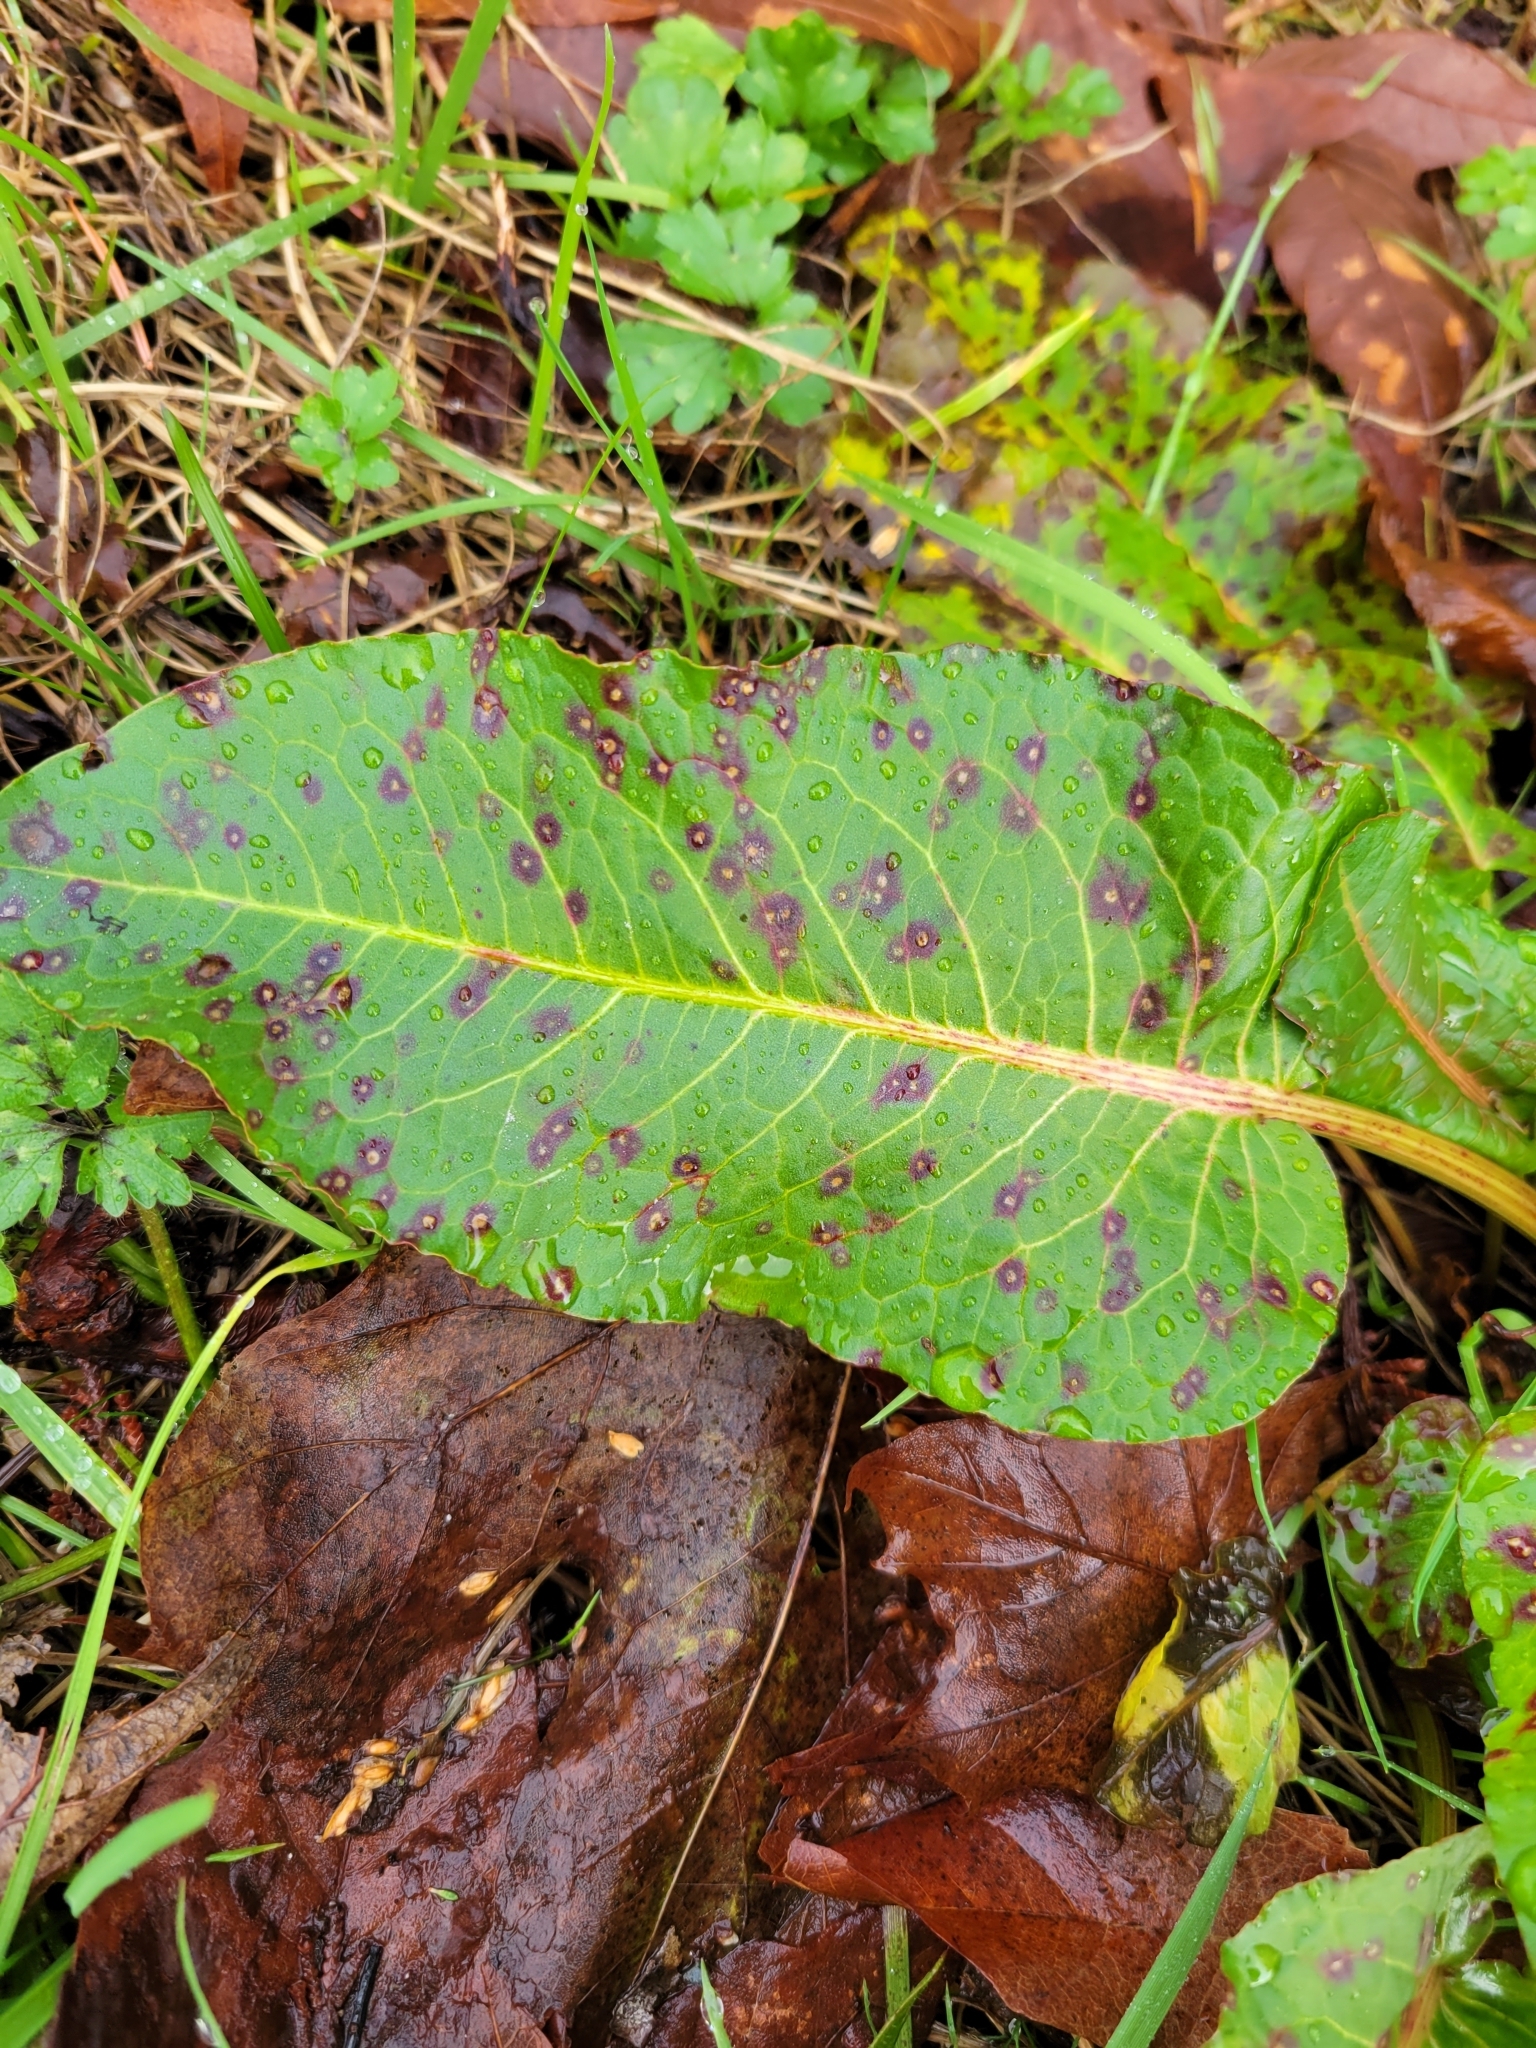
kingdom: Fungi
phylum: Ascomycota
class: Dothideomycetes
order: Mycosphaerellales
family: Mycosphaerellaceae
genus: Ramularia
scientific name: Ramularia rubella
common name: Red dock spot
